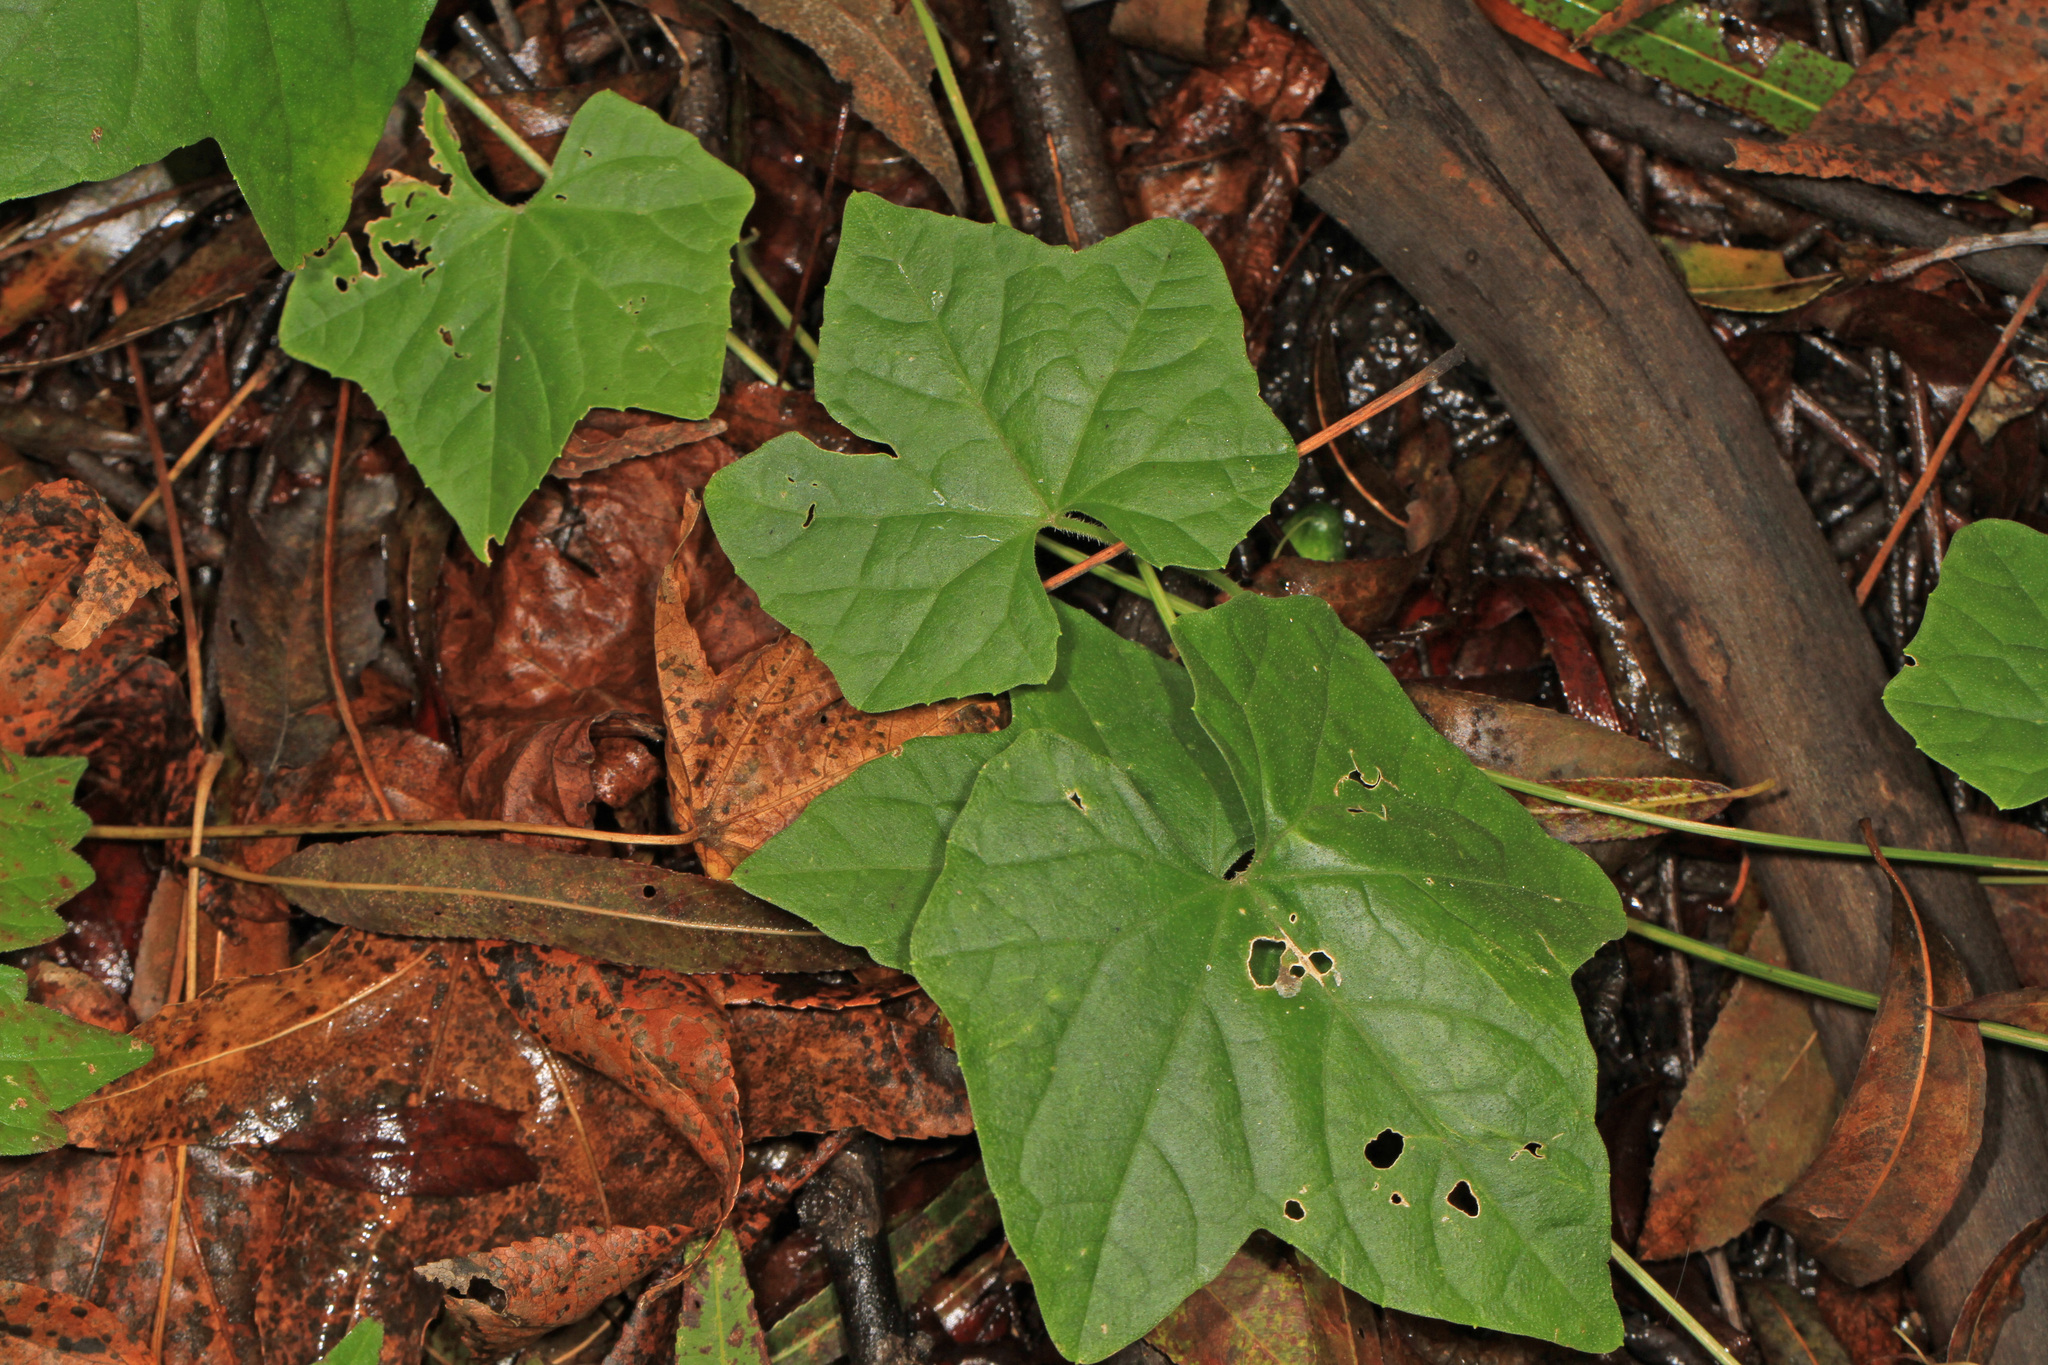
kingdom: Plantae
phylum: Tracheophyta
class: Magnoliopsida
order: Cucurbitales
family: Cucurbitaceae
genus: Melothria
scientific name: Melothria pendula
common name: Creeping-cucumber
